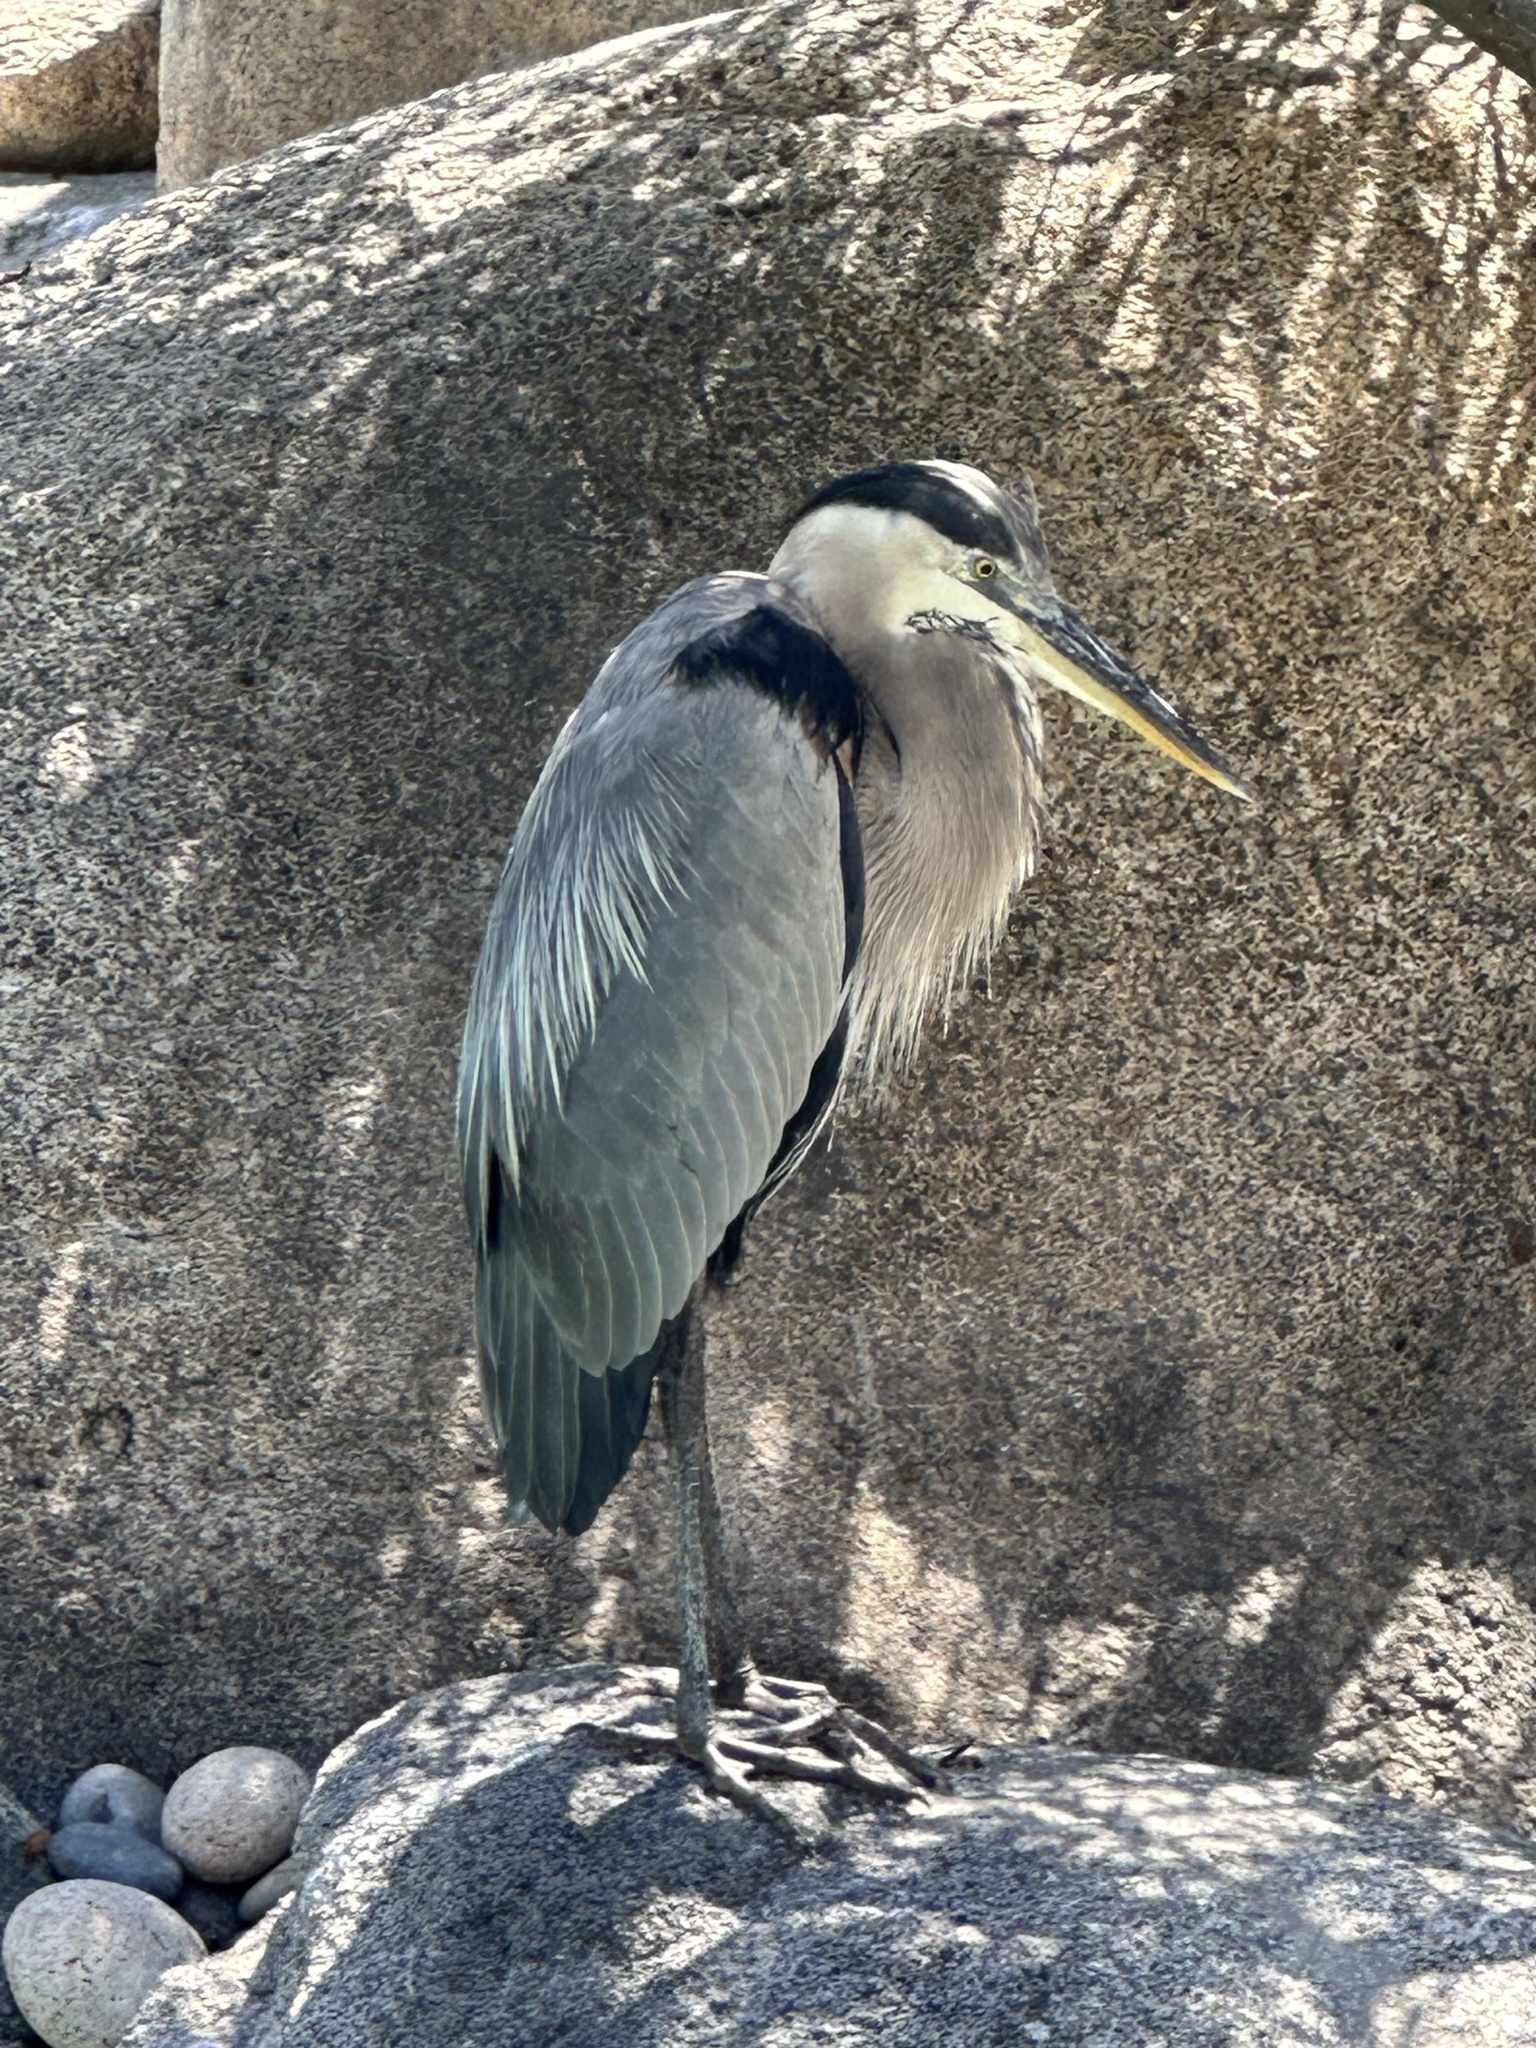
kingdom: Animalia
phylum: Chordata
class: Aves
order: Pelecaniformes
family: Ardeidae
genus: Ardea
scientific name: Ardea herodias
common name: Great blue heron
